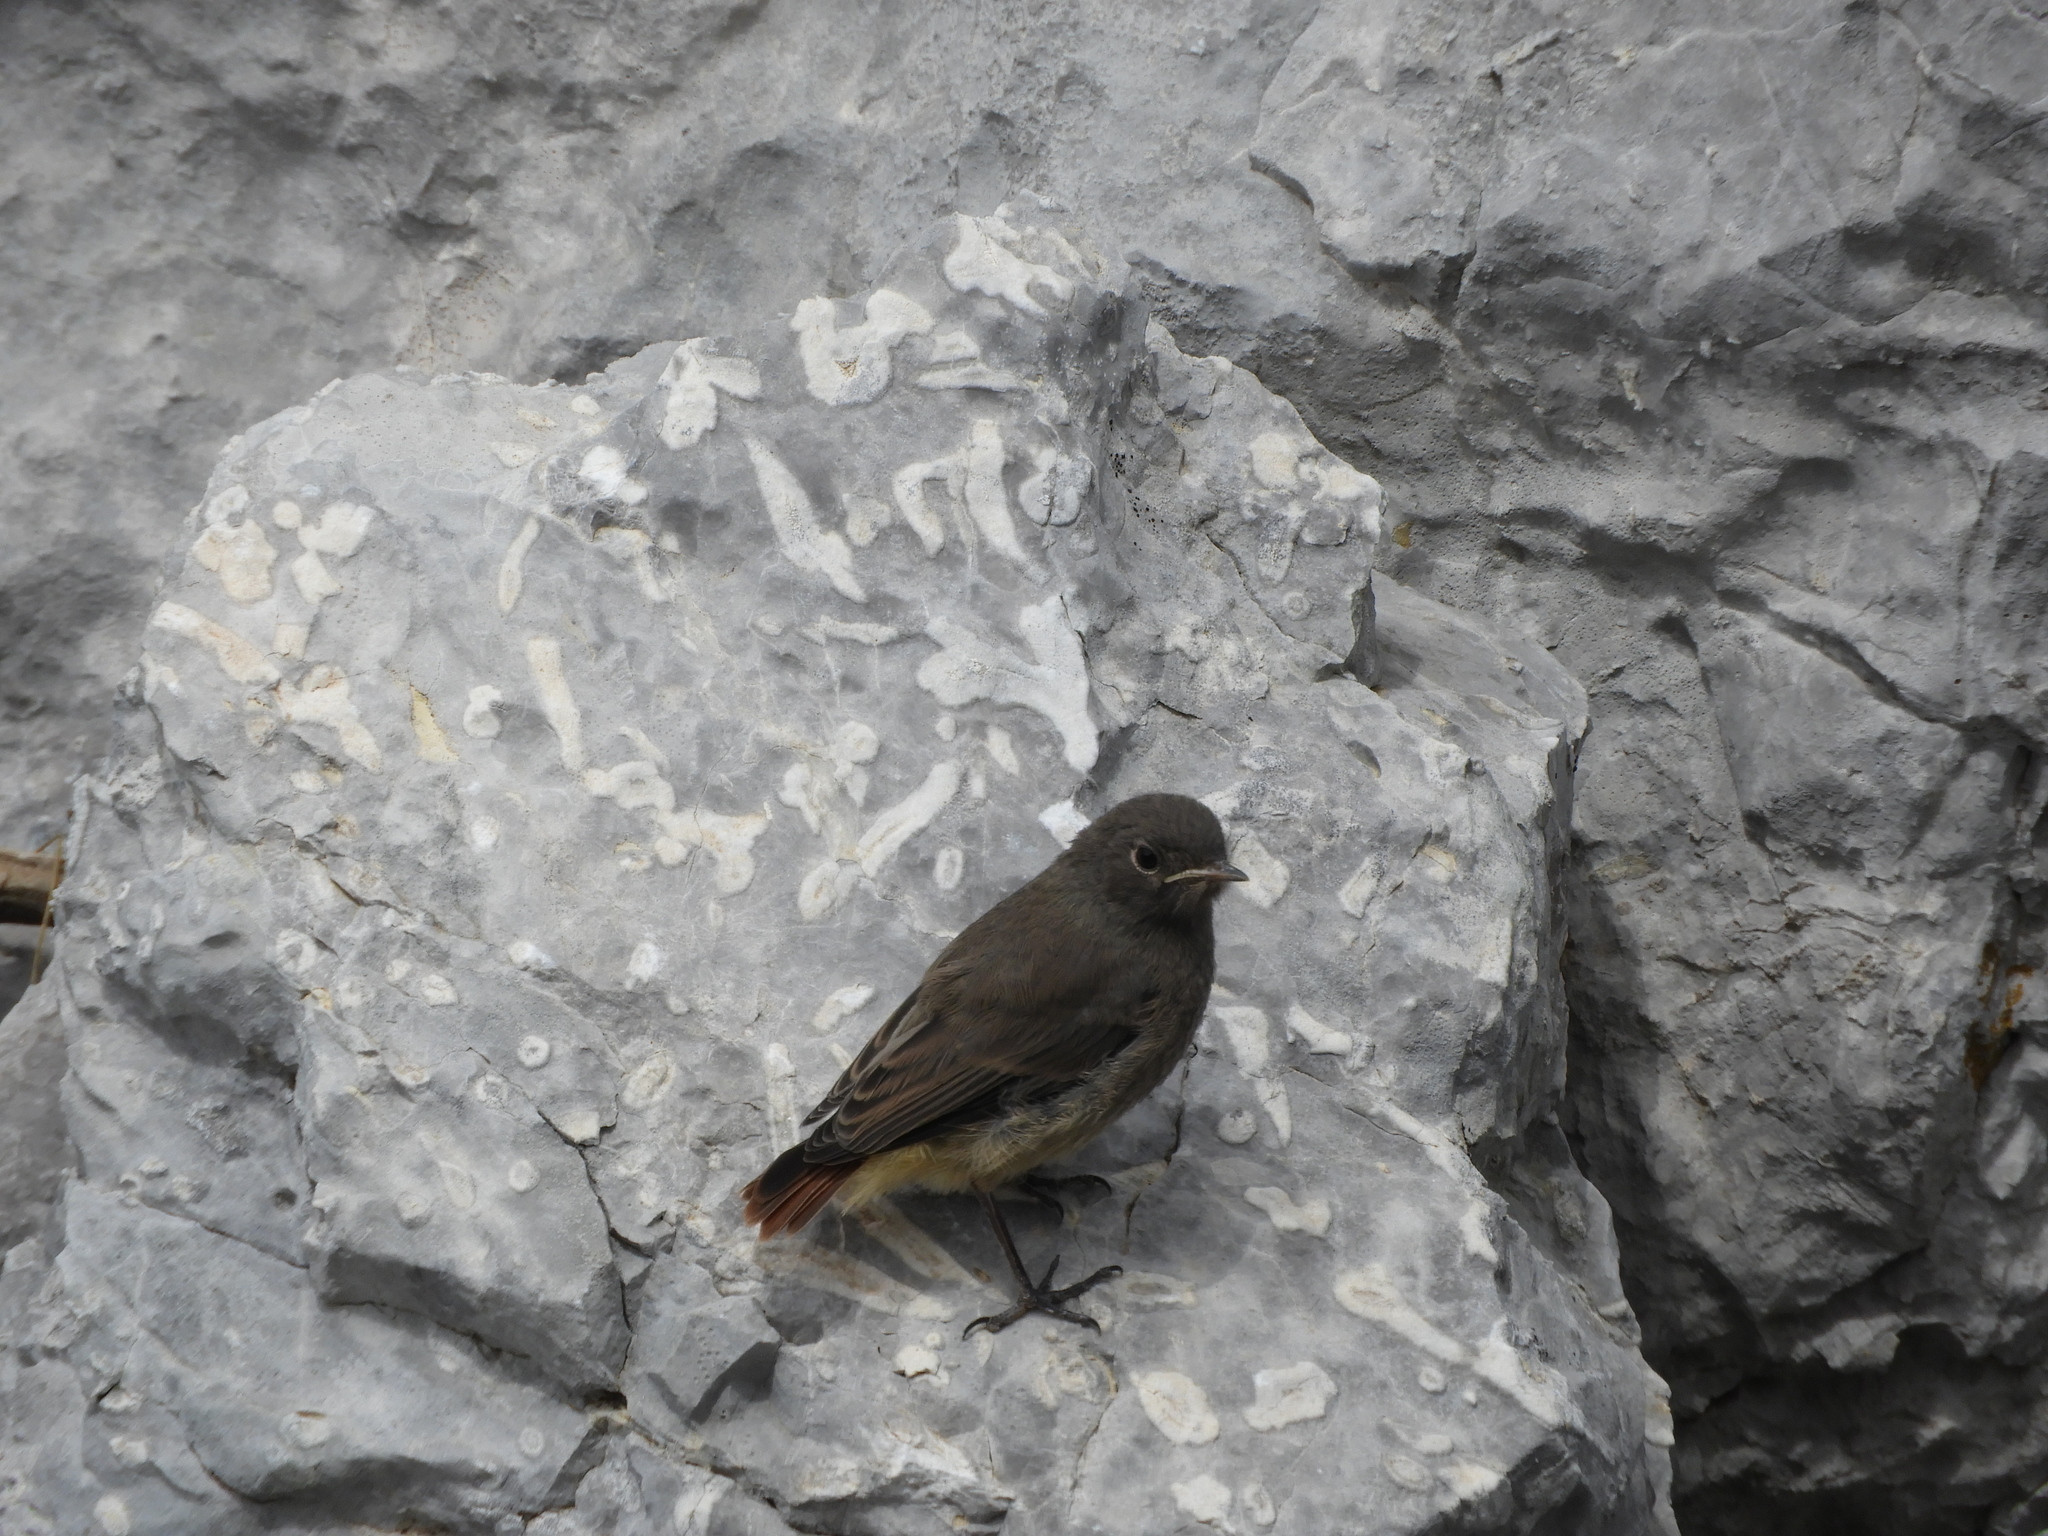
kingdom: Animalia
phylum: Chordata
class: Aves
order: Passeriformes
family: Muscicapidae
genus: Phoenicurus
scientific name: Phoenicurus ochruros
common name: Black redstart
